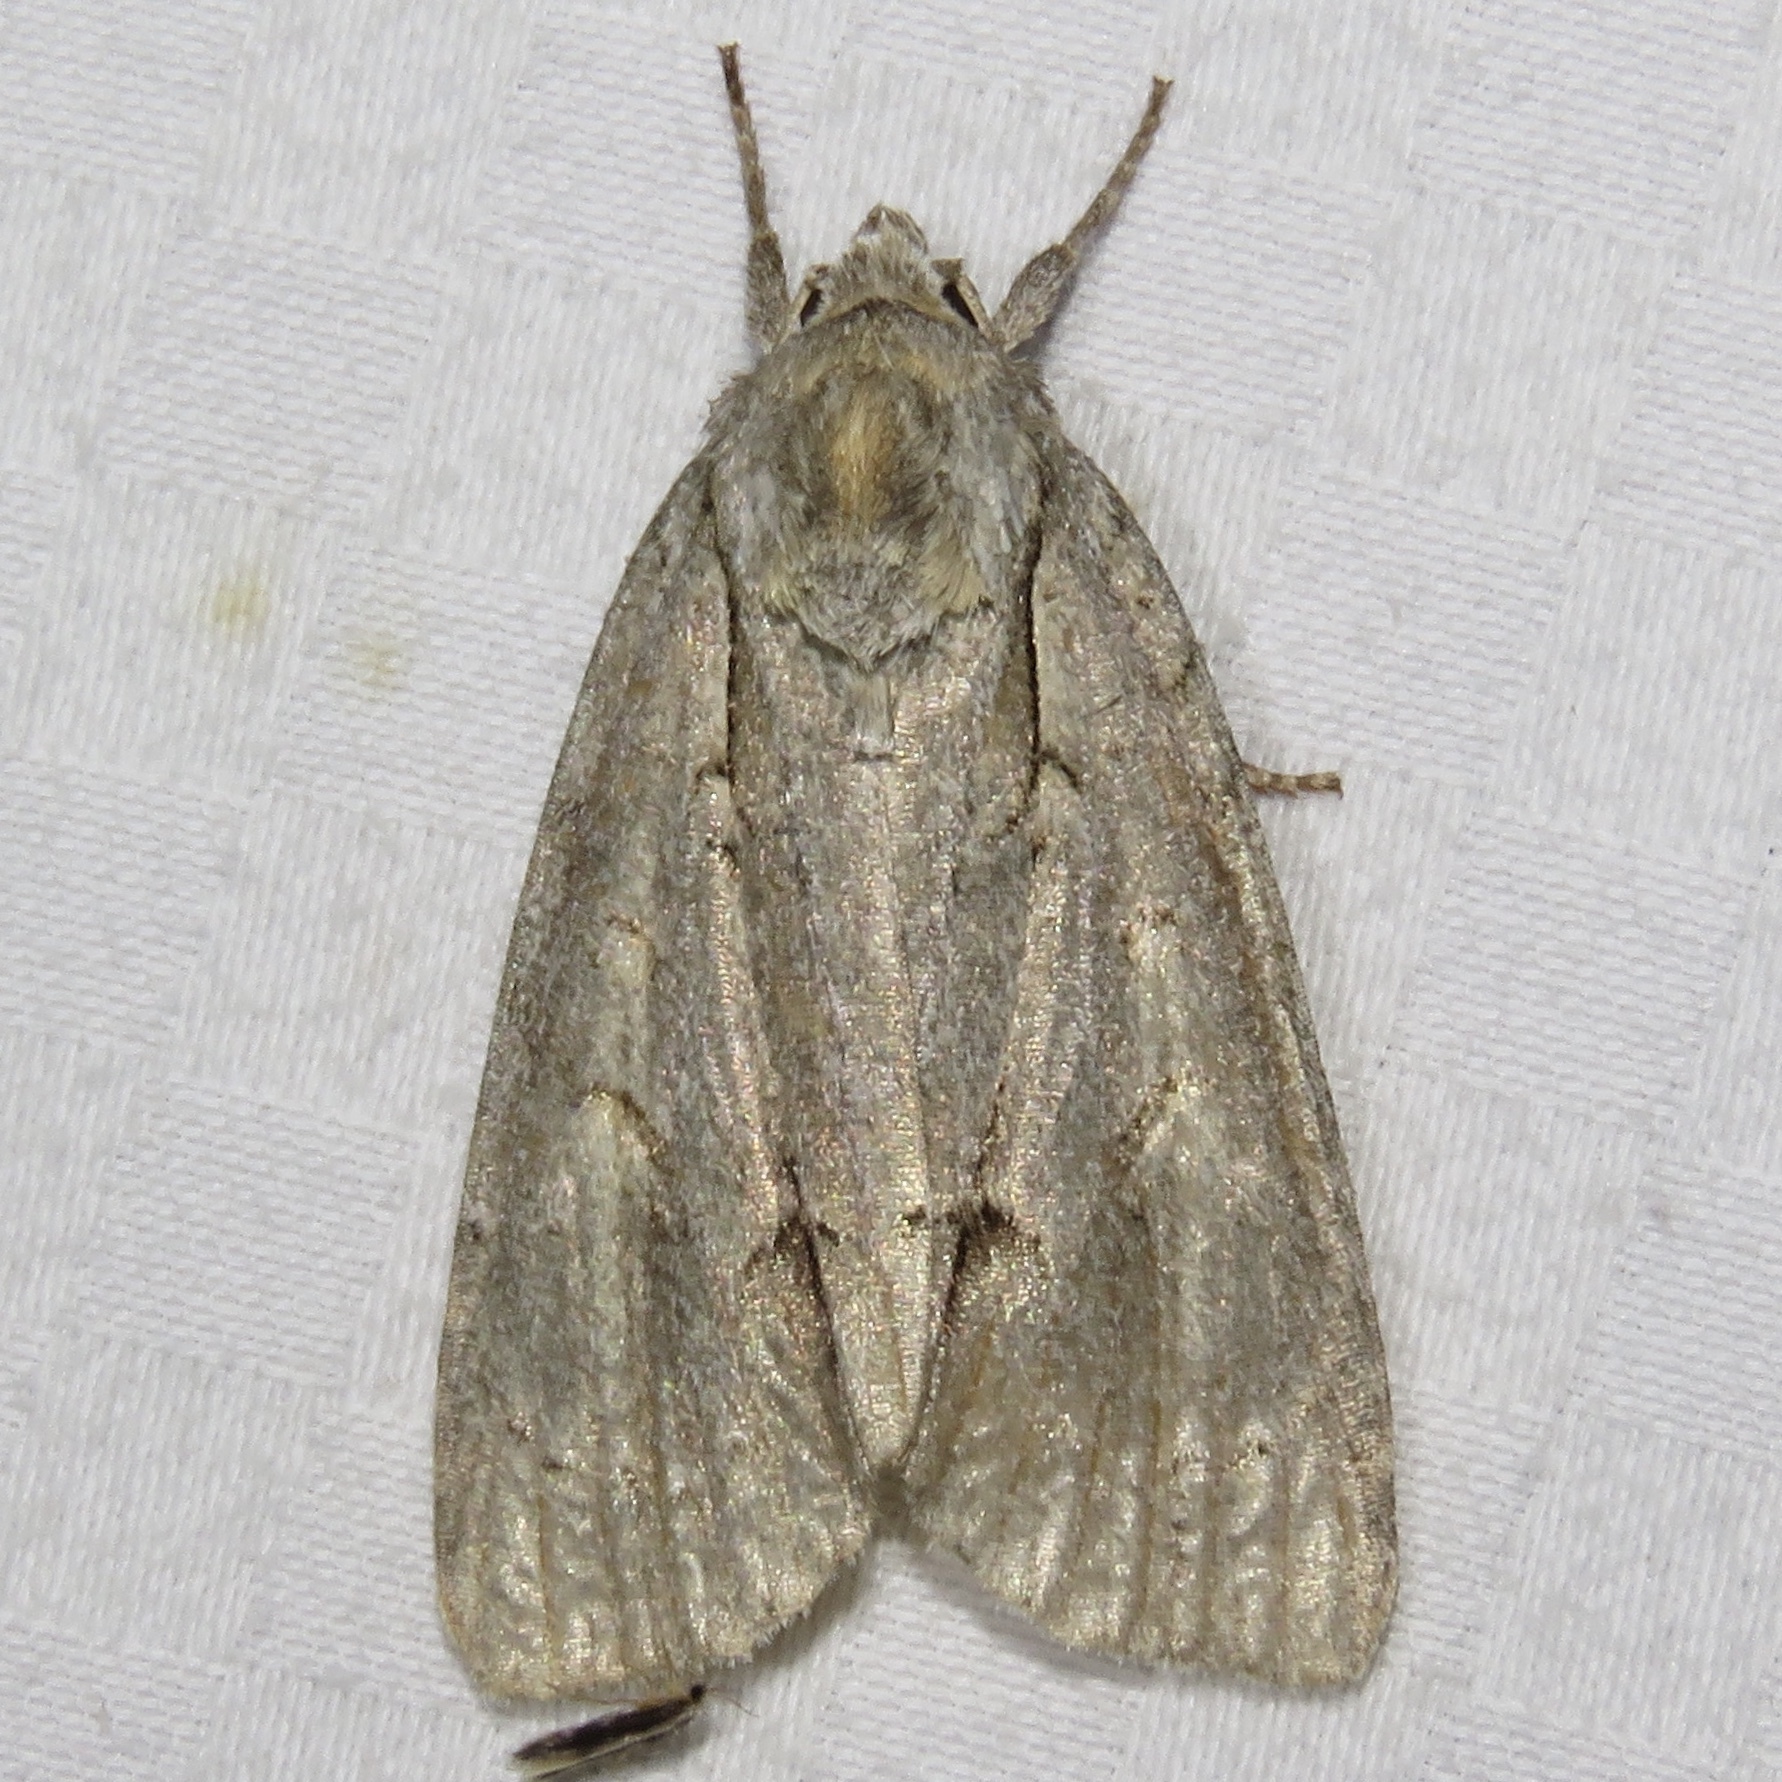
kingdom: Animalia
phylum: Arthropoda
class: Insecta
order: Lepidoptera
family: Noctuidae
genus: Acronicta
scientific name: Acronicta morula
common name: Ochre dagger
